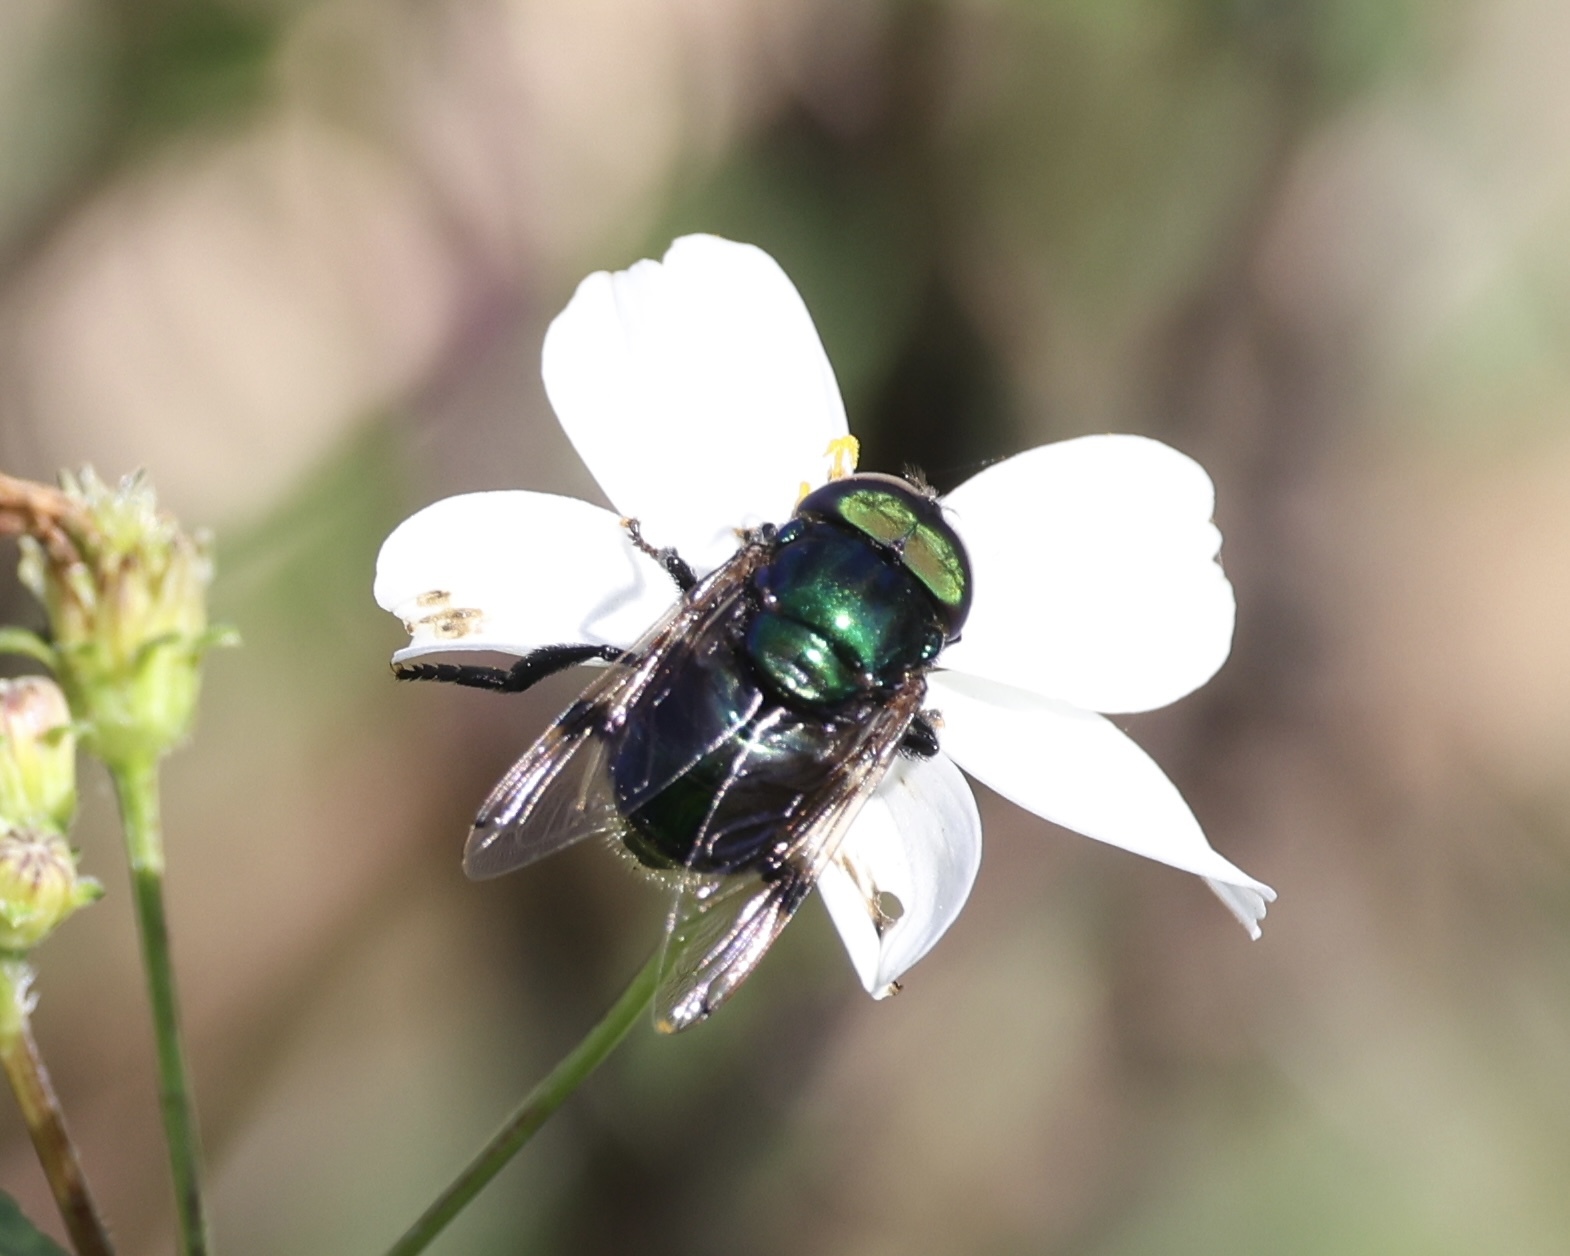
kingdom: Animalia
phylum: Arthropoda
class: Insecta
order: Diptera
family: Syrphidae
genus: Ornidia
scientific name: Ornidia obesa
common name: Syrphid fly
